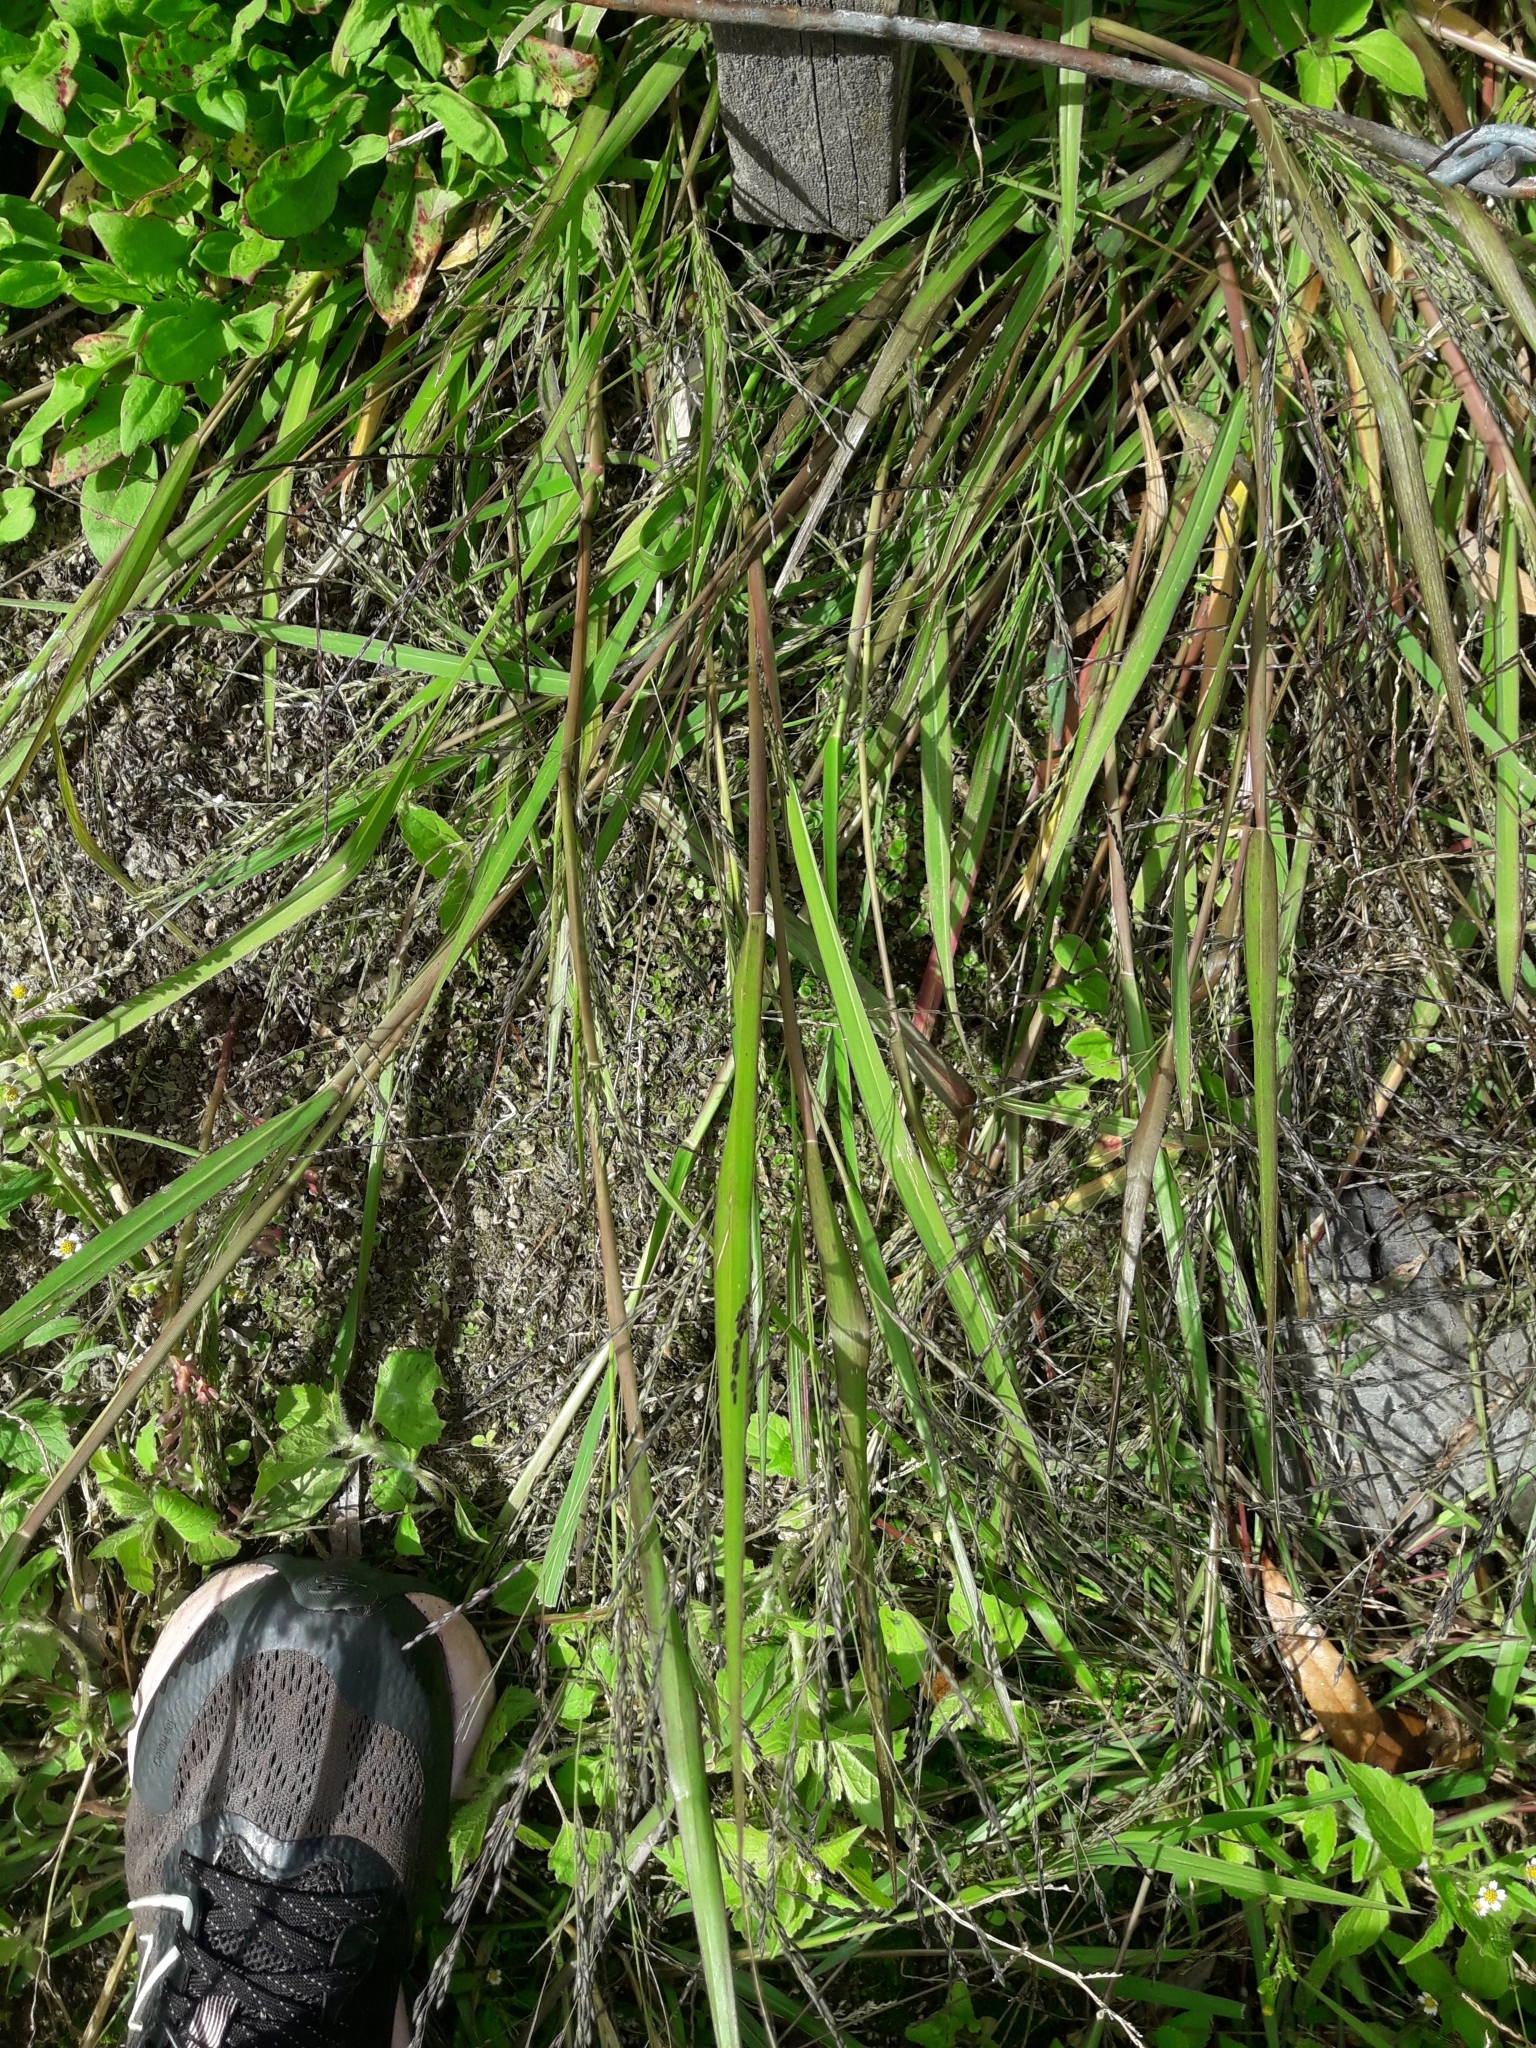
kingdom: Plantae
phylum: Tracheophyta
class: Liliopsida
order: Poales
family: Poaceae
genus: Panicum
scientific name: Panicum dichotomiflorum
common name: Autumn millet
